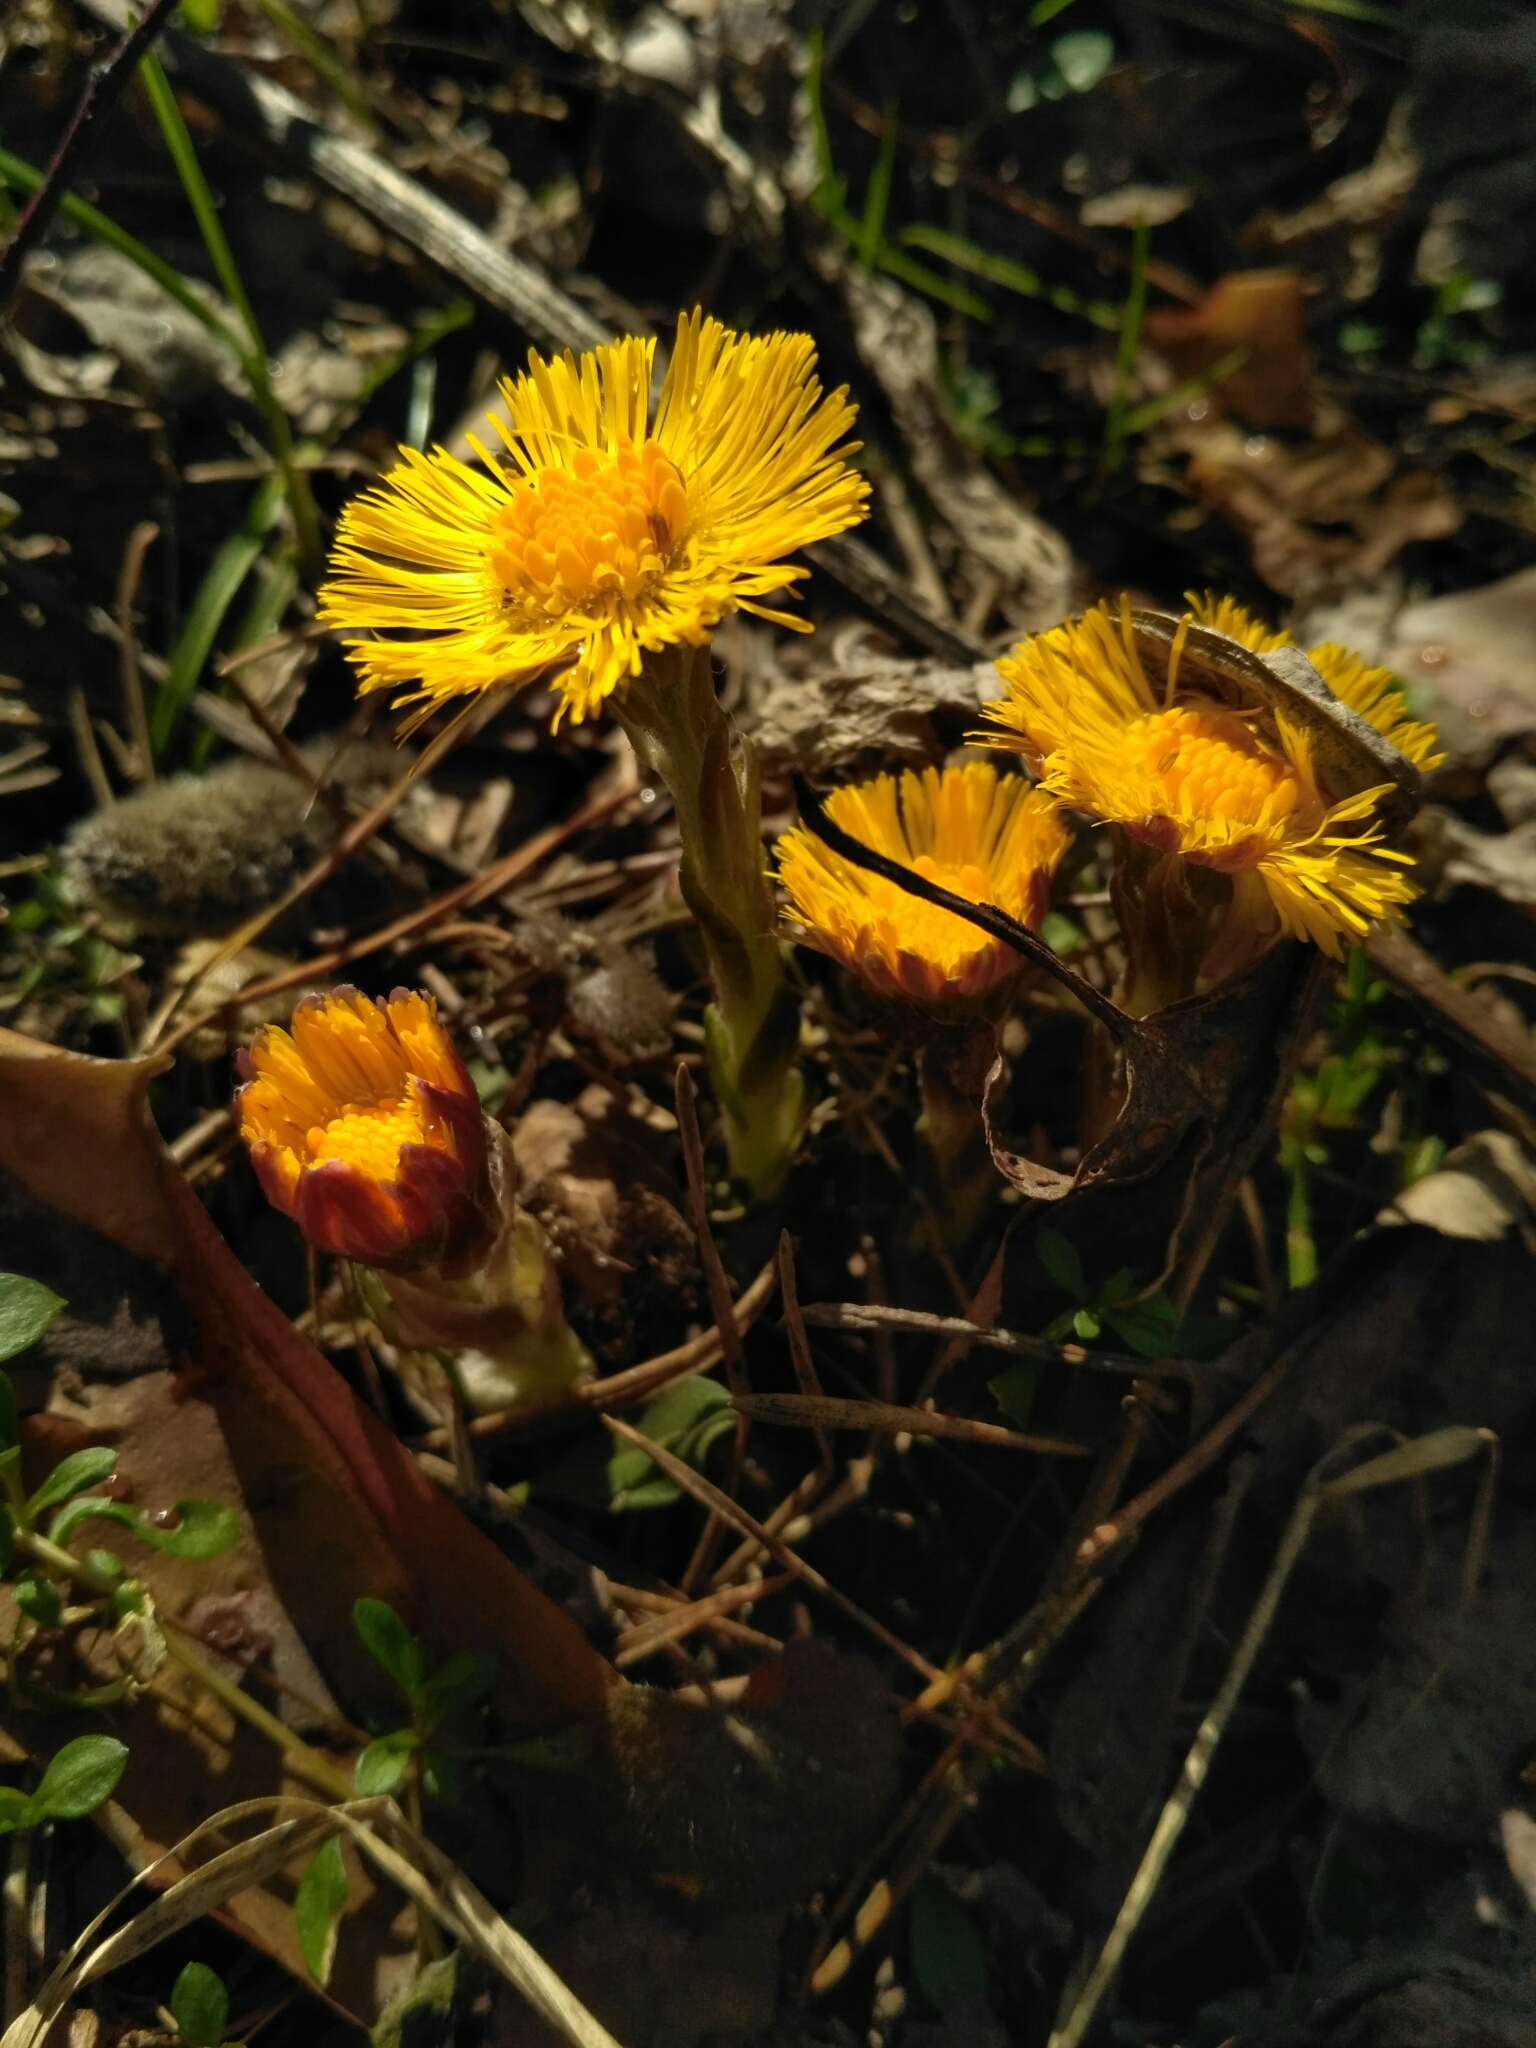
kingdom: Plantae
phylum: Tracheophyta
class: Magnoliopsida
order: Asterales
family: Asteraceae
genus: Tussilago
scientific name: Tussilago farfara
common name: Coltsfoot
